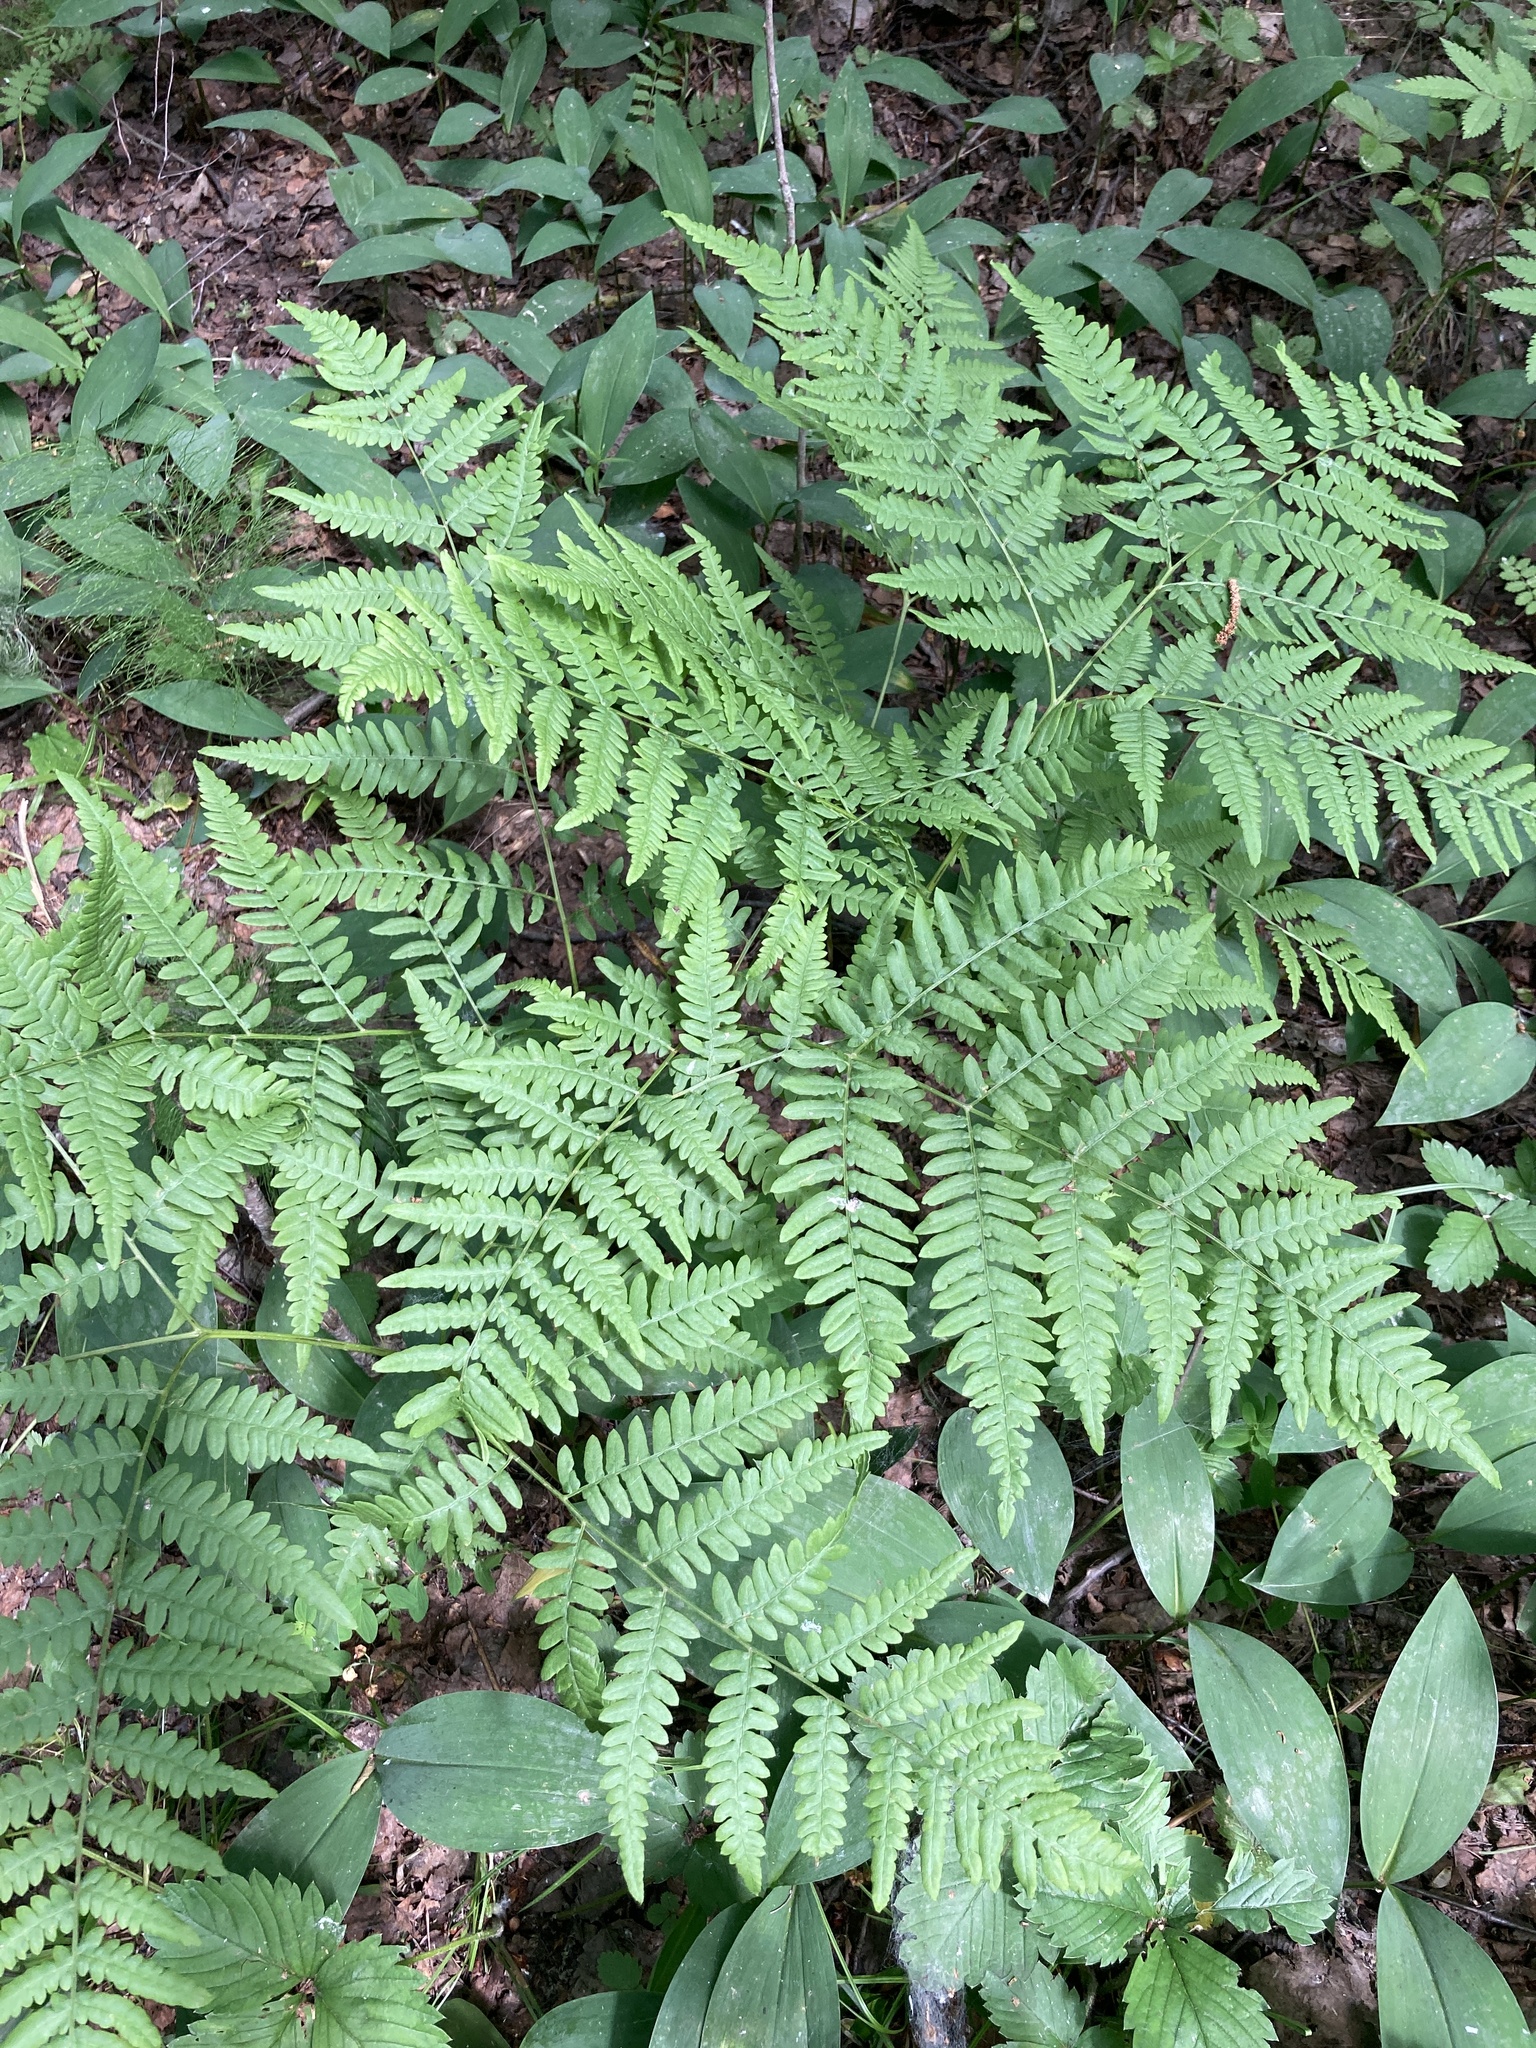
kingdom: Plantae
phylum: Tracheophyta
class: Polypodiopsida
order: Polypodiales
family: Dennstaedtiaceae
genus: Pteridium
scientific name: Pteridium aquilinum
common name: Bracken
